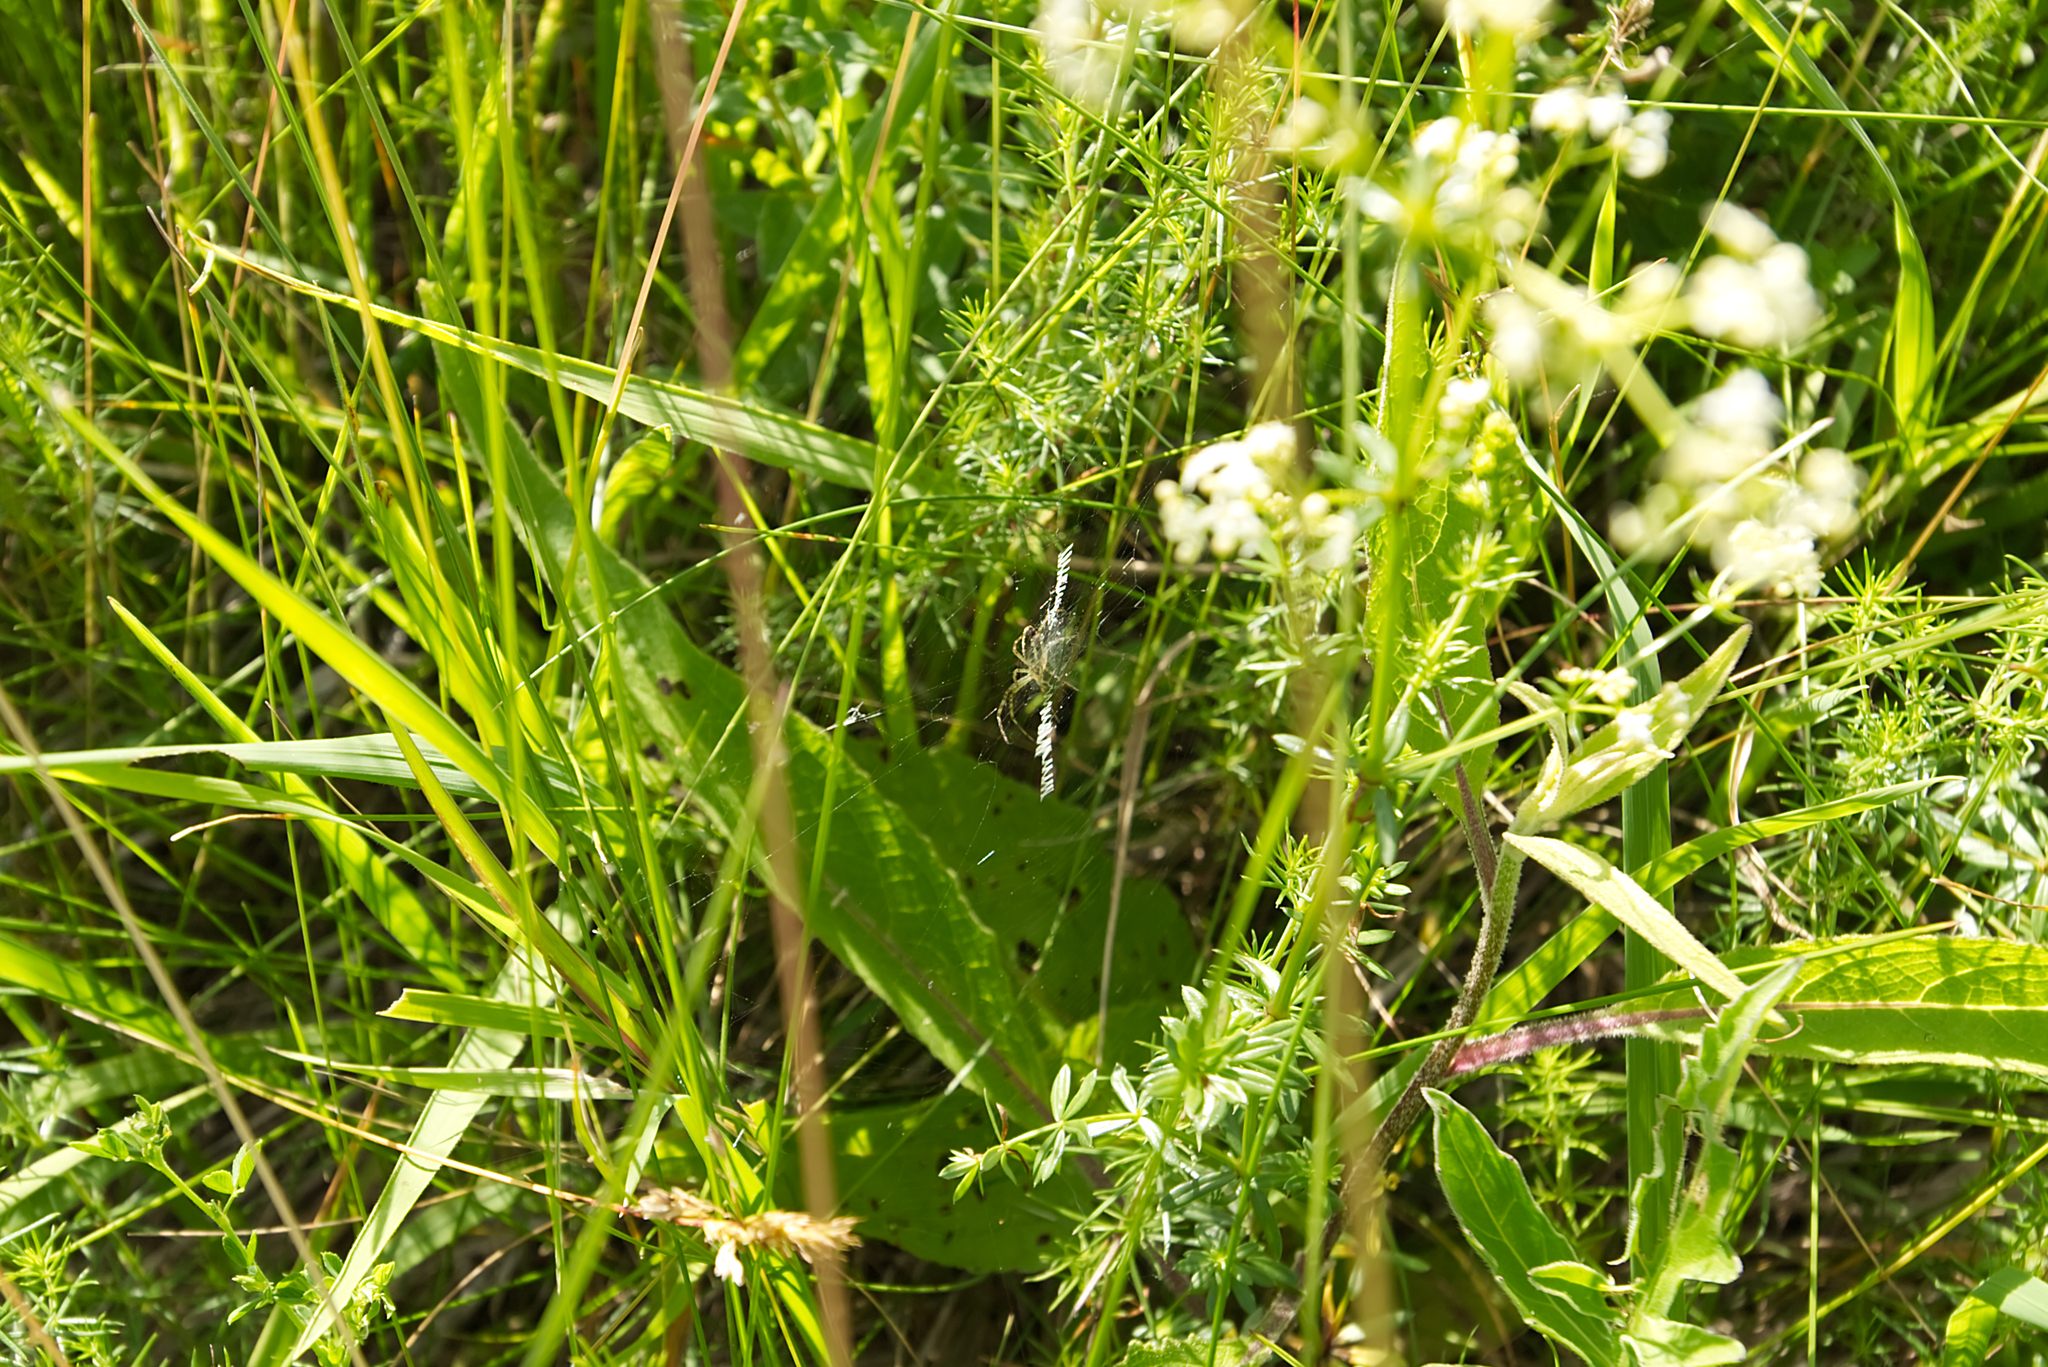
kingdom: Animalia
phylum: Arthropoda
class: Arachnida
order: Araneae
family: Araneidae
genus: Argiope
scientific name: Argiope bruennichi
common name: Wasp spider
